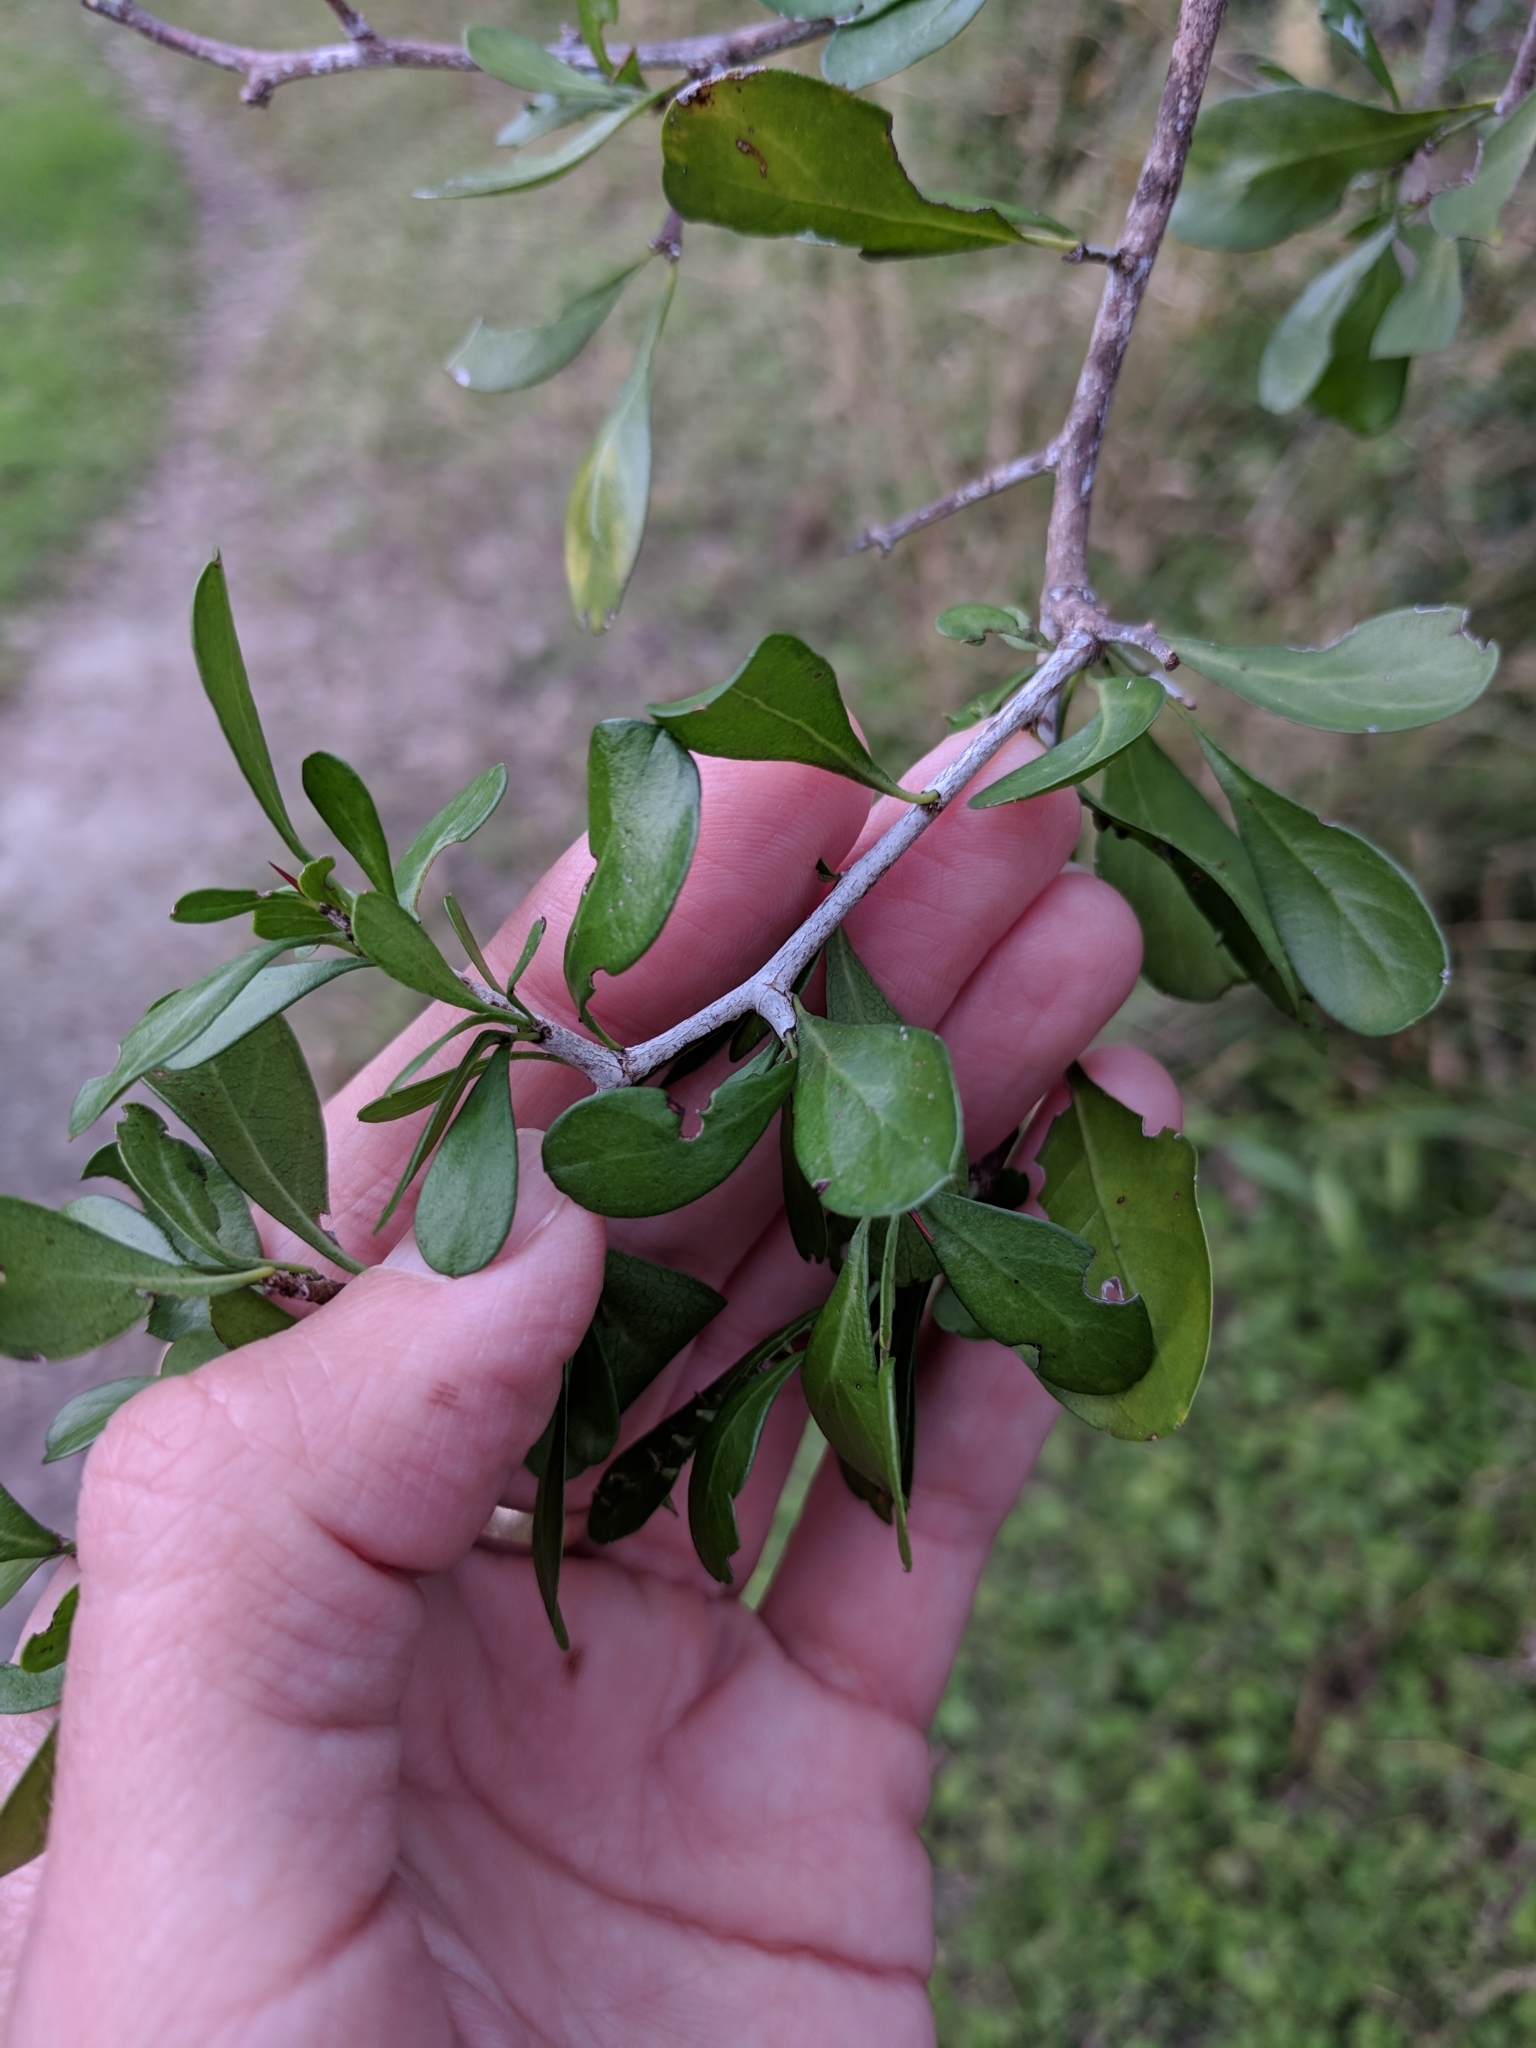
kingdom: Plantae
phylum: Tracheophyta
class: Magnoliopsida
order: Rosales
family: Rhamnaceae
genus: Condalia
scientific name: Condalia hookeri
